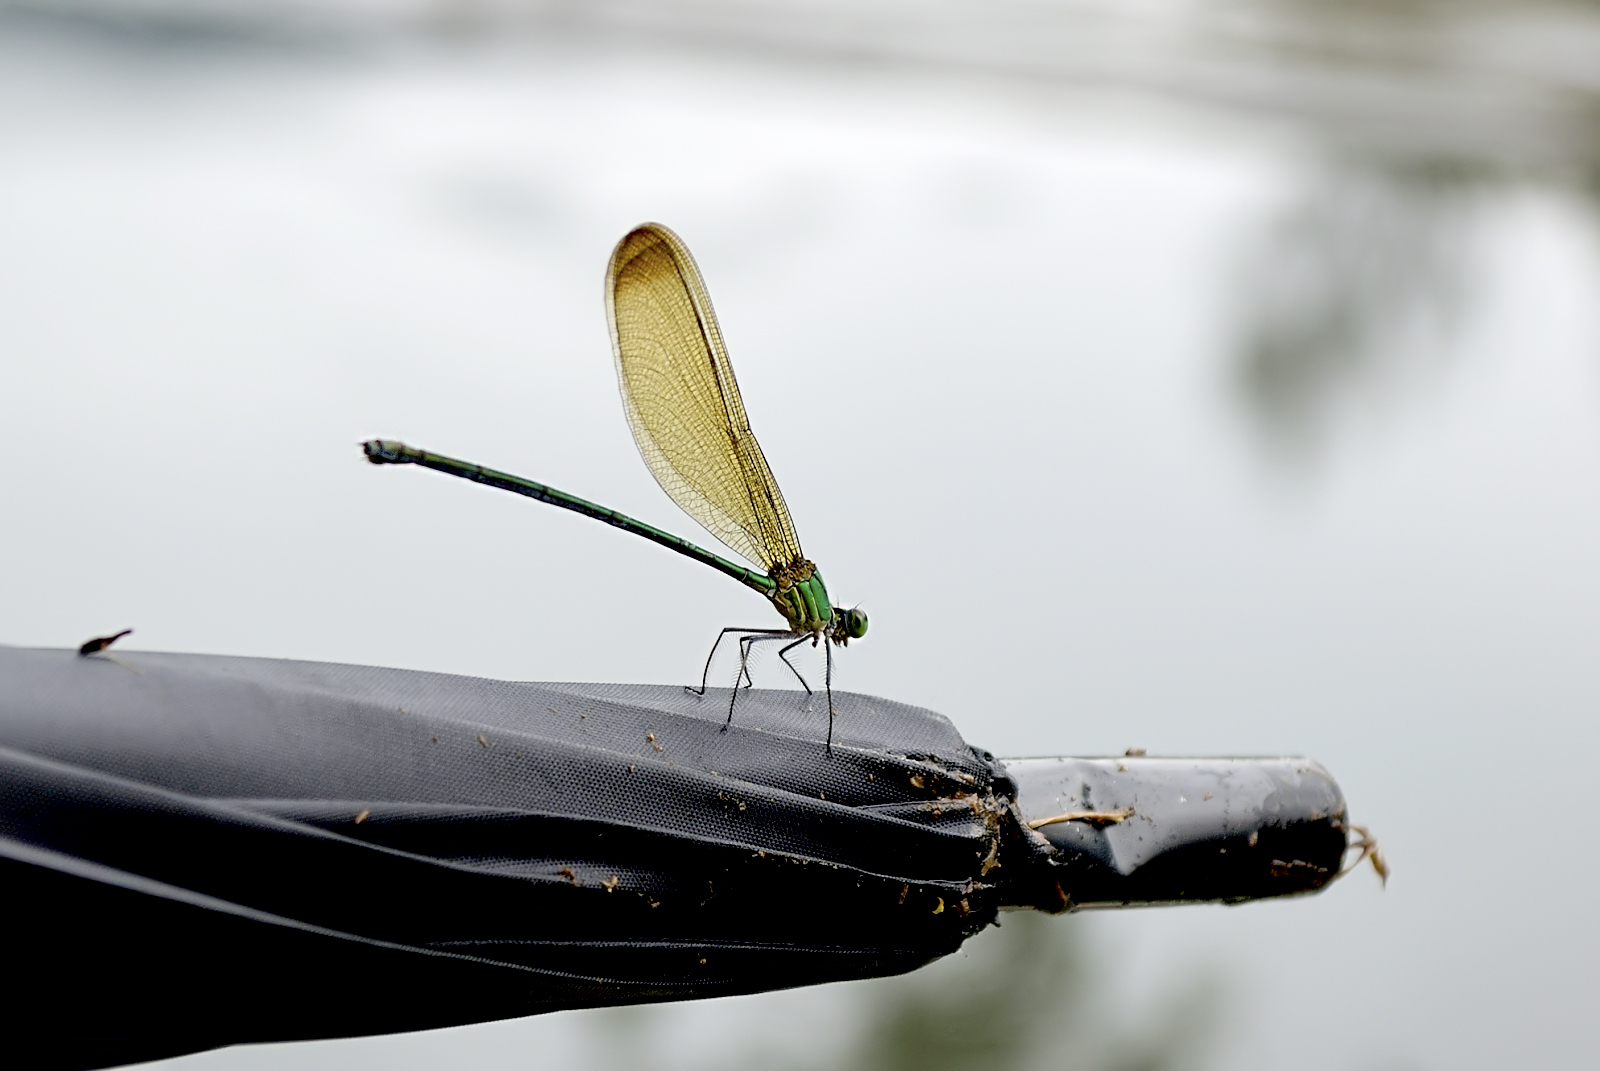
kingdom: Animalia
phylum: Arthropoda
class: Insecta
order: Odonata
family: Calopterygidae
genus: Vestalis
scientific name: Vestalis gracilis
